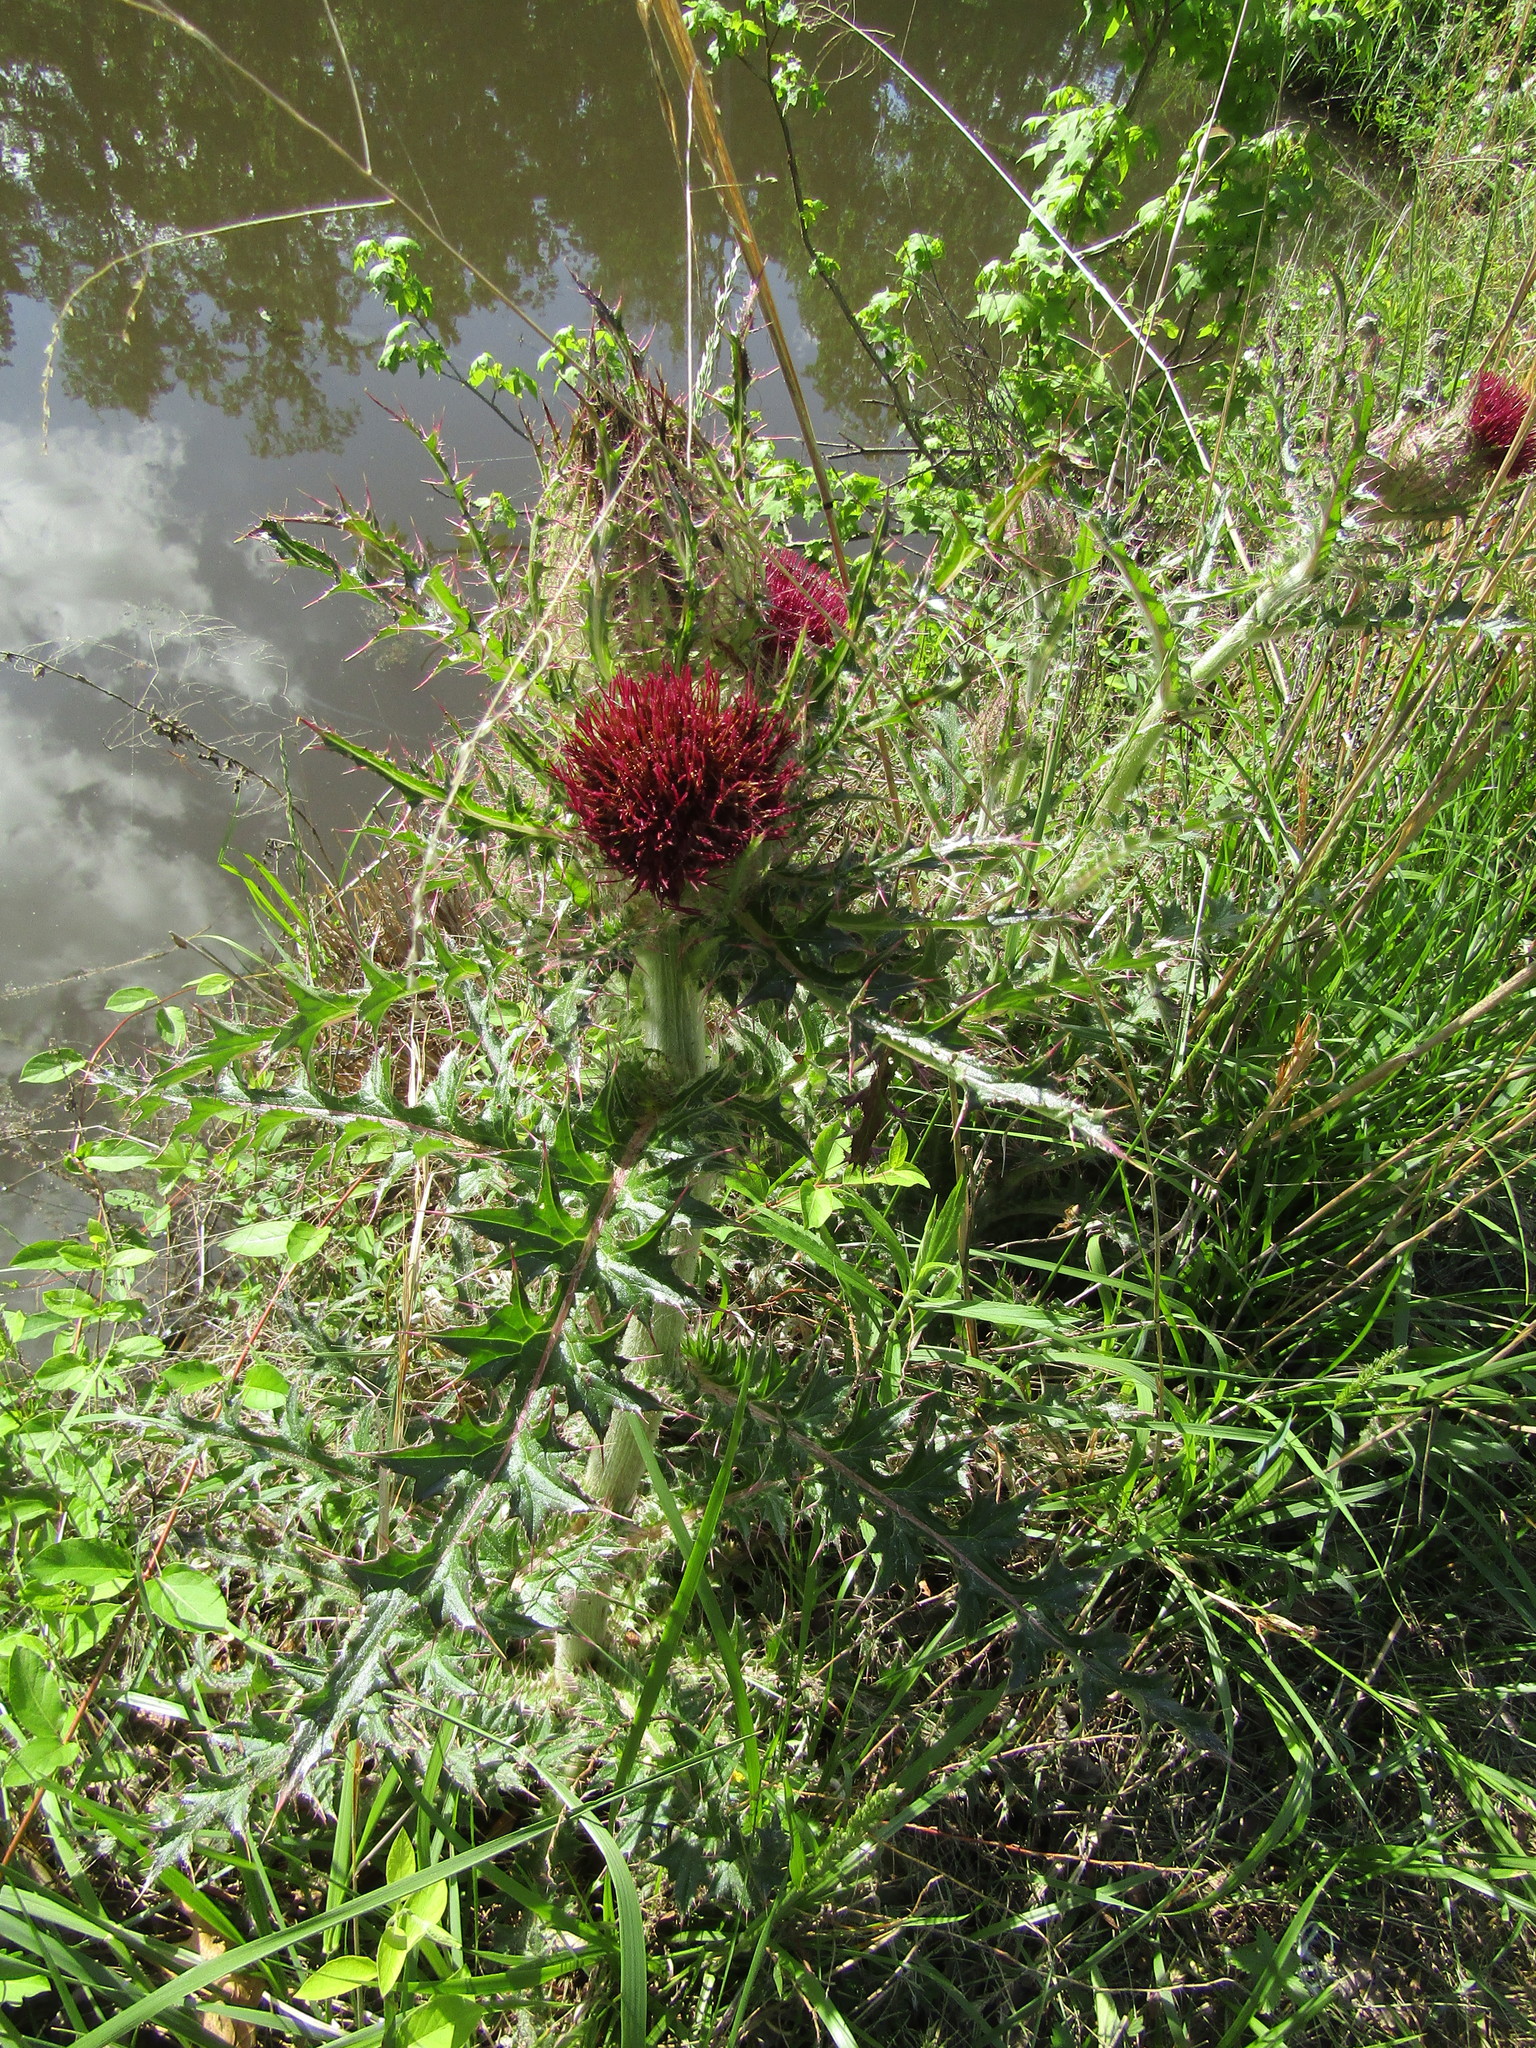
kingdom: Plantae
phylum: Tracheophyta
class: Magnoliopsida
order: Asterales
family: Asteraceae
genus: Cirsium
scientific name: Cirsium horridulum
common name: Bristly thistle
